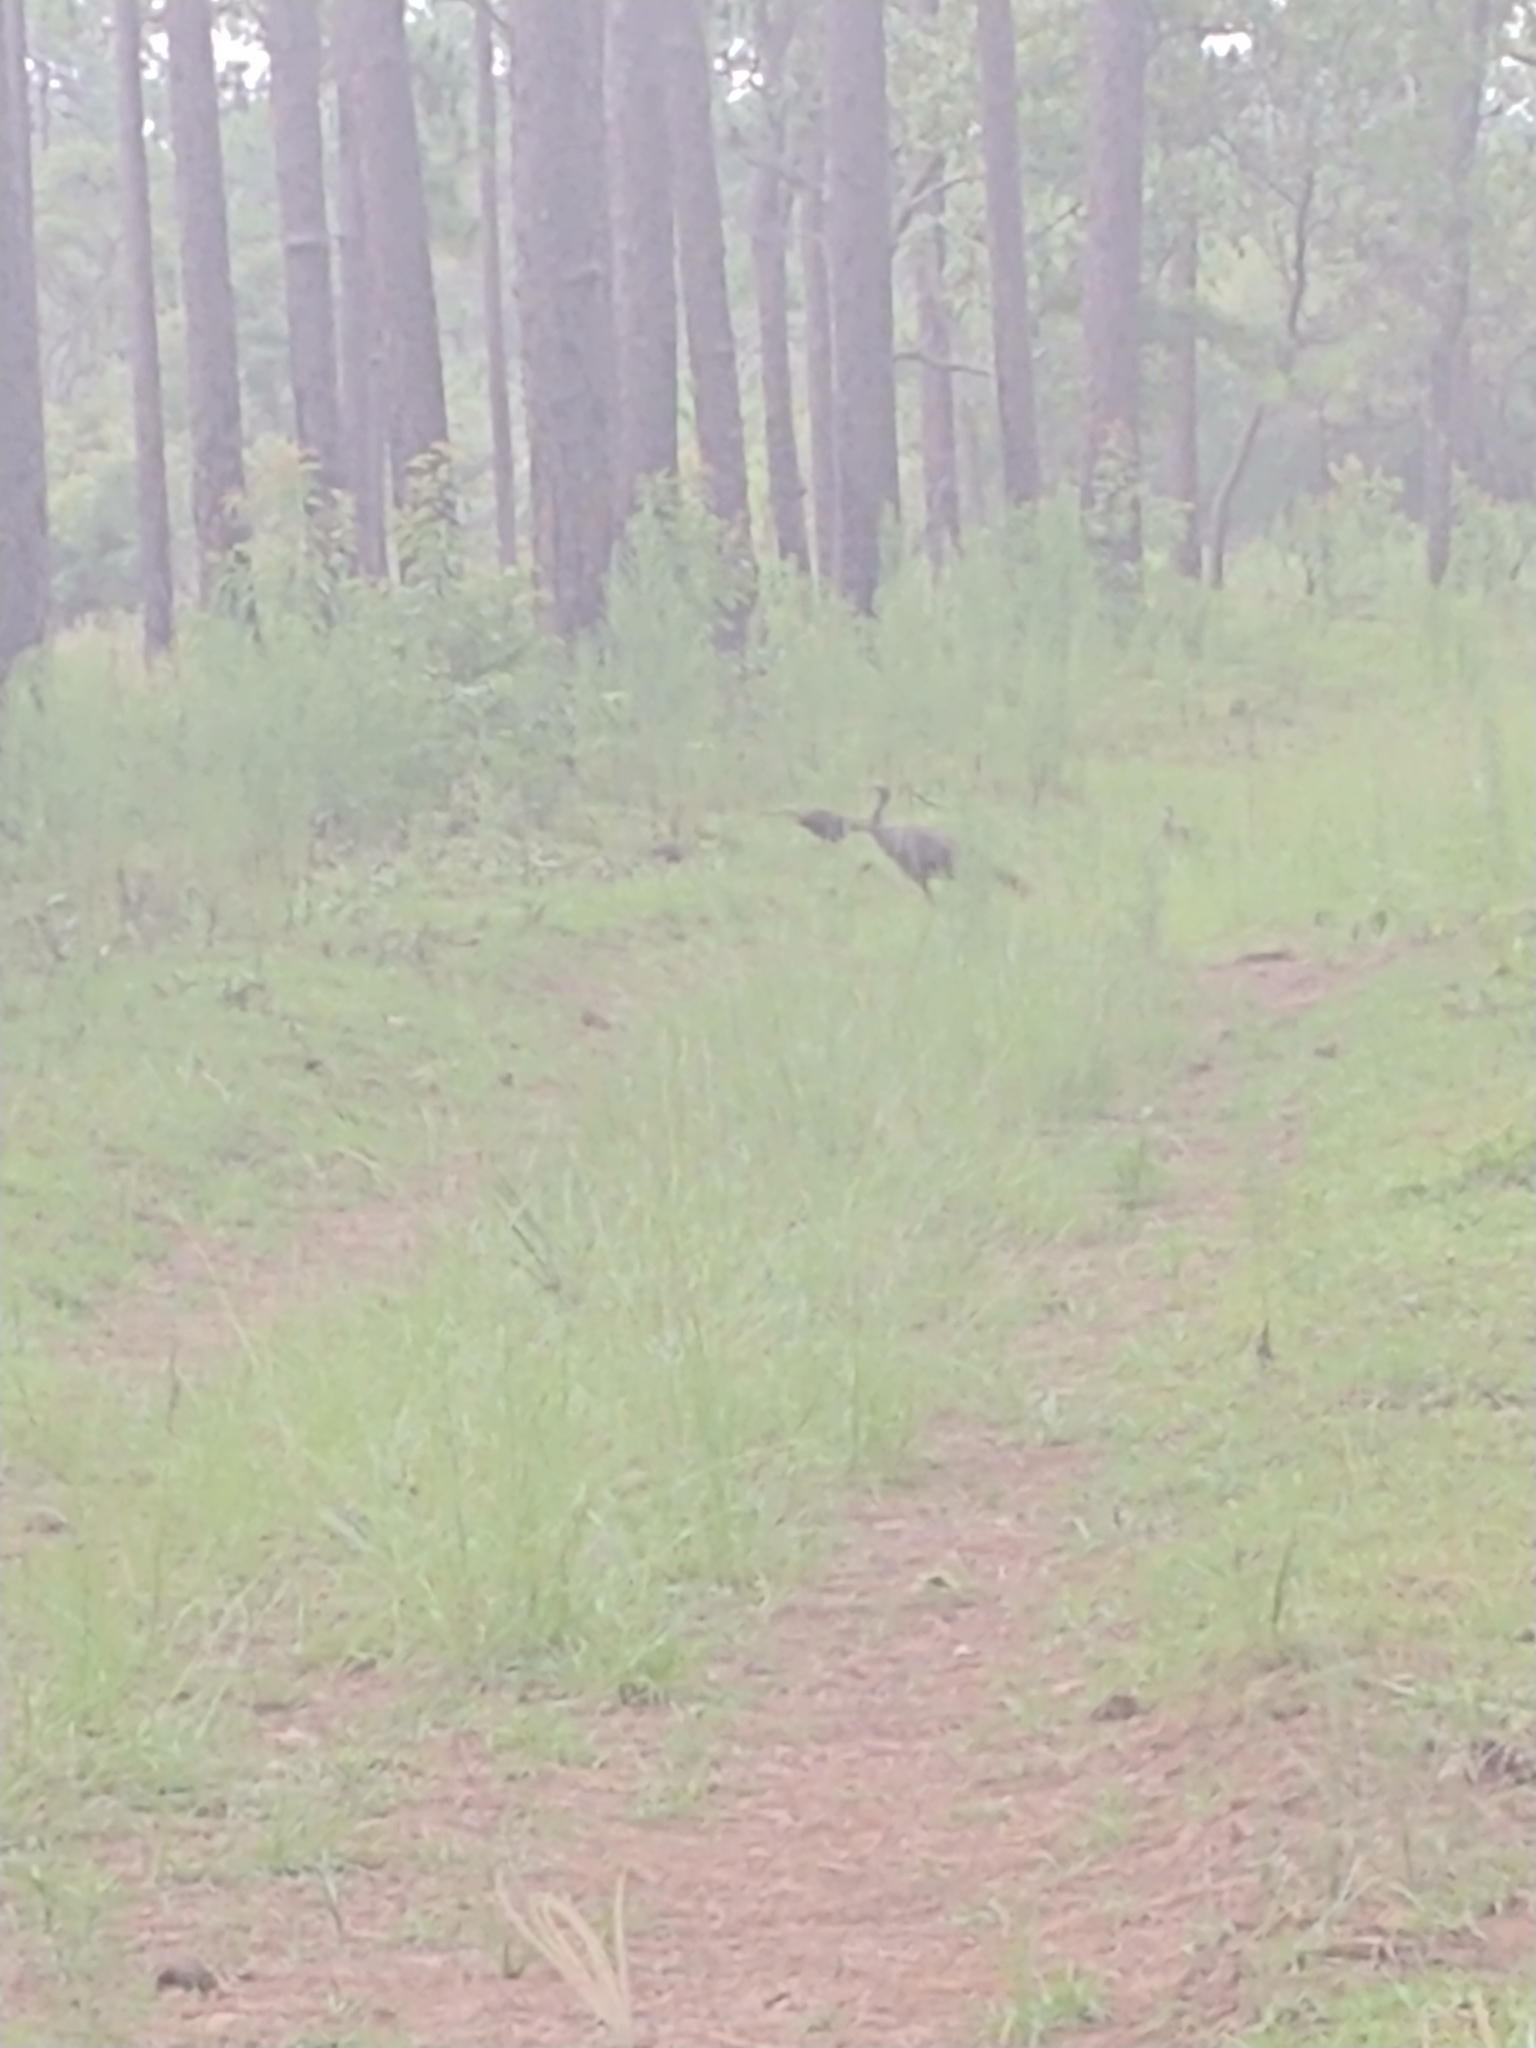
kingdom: Animalia
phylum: Chordata
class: Aves
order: Galliformes
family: Phasianidae
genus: Meleagris
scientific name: Meleagris gallopavo
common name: Wild turkey
